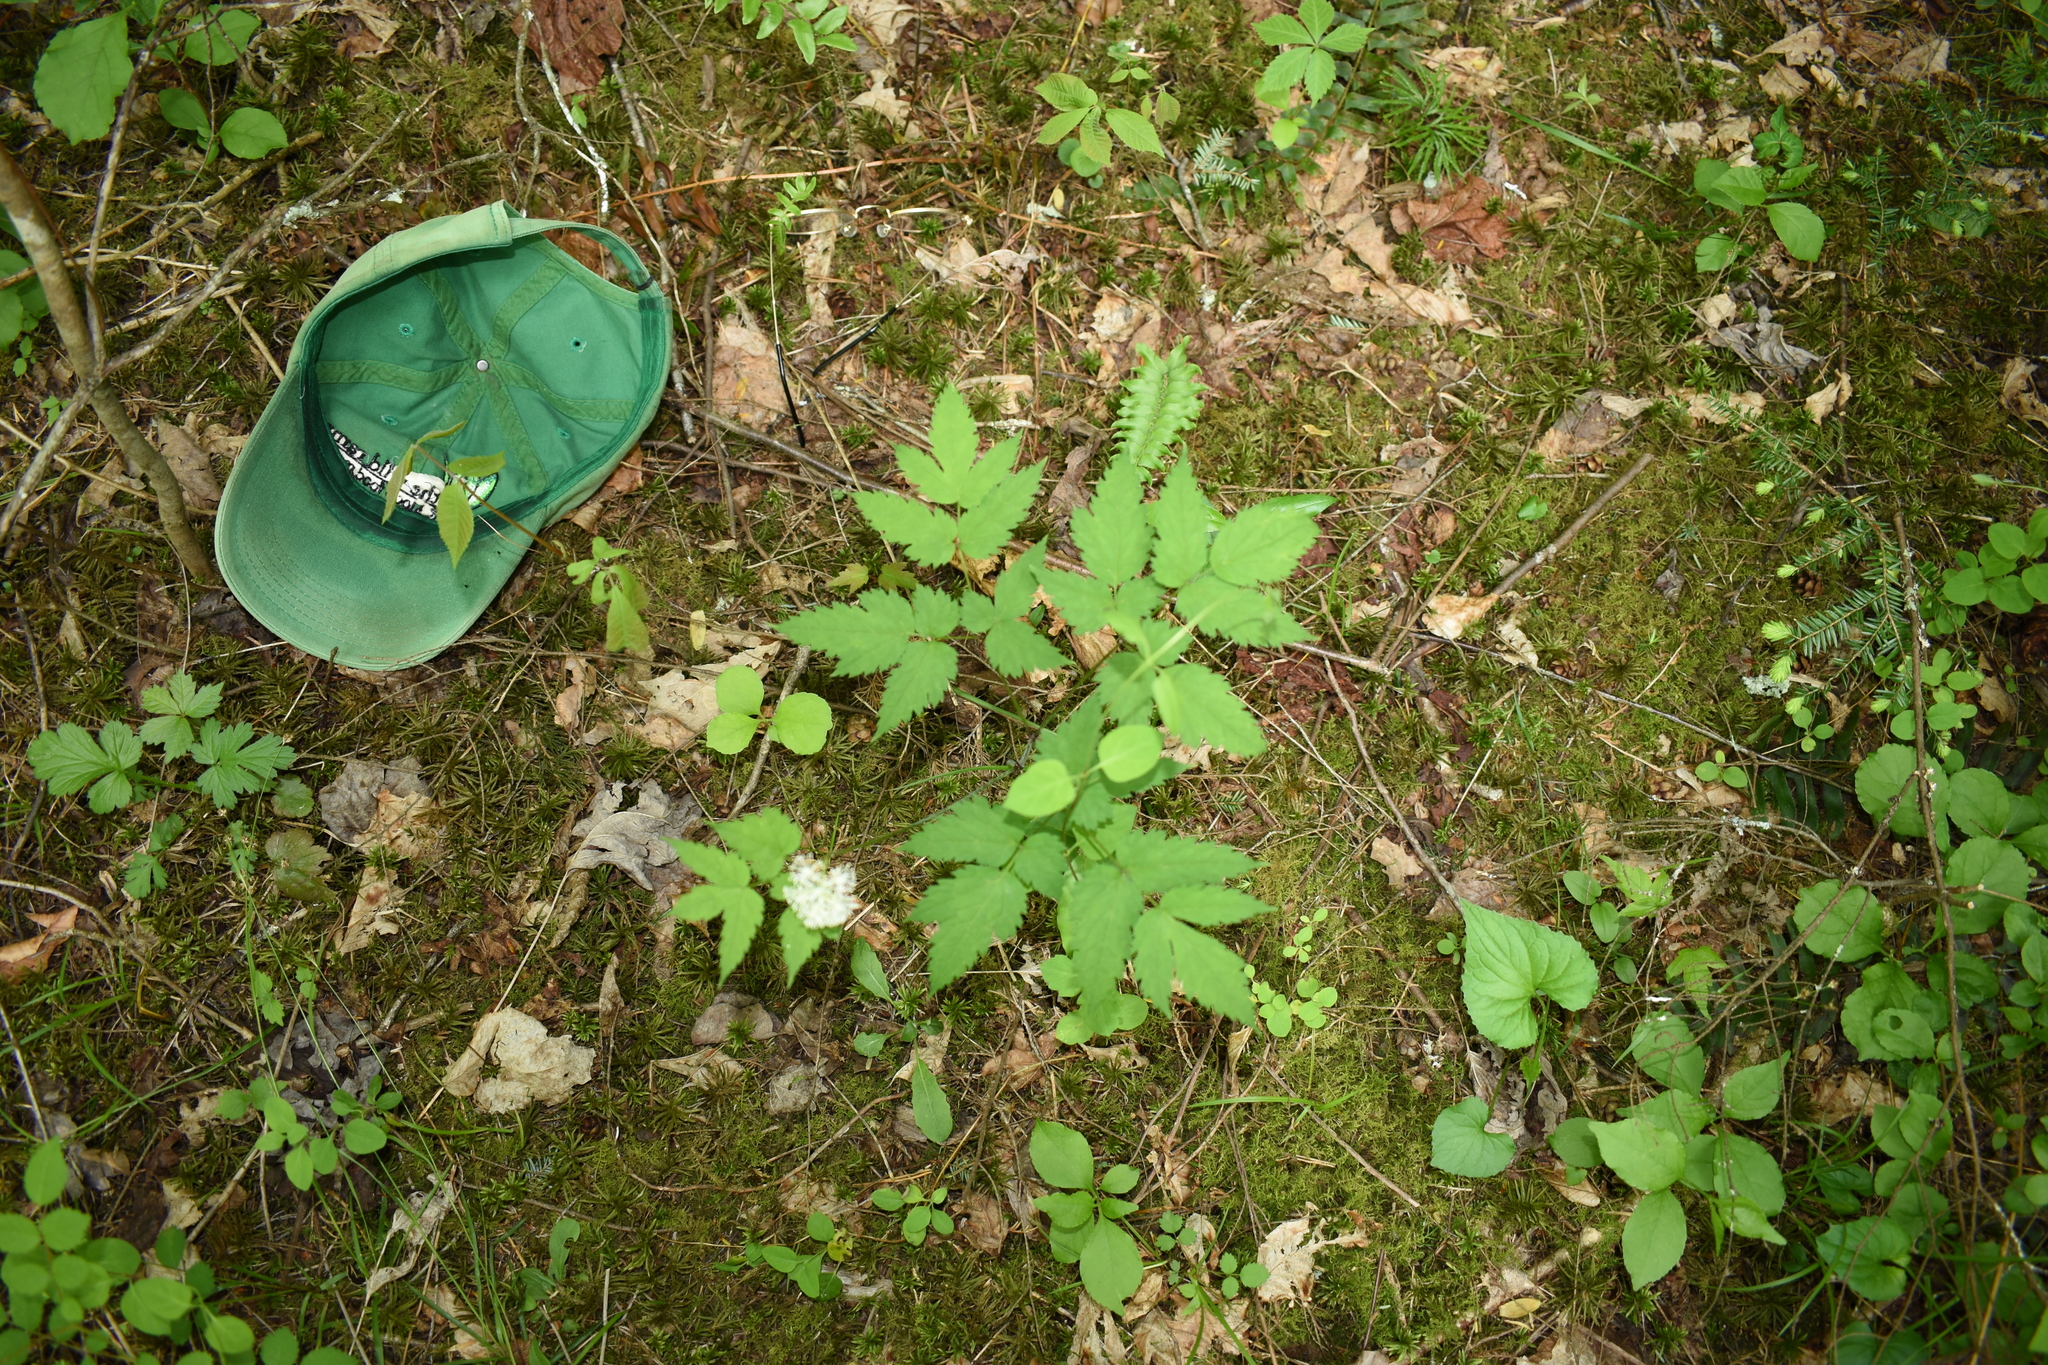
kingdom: Plantae
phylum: Tracheophyta
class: Magnoliopsida
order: Ranunculales
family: Ranunculaceae
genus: Actaea
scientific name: Actaea pachypoda
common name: Doll's-eyes
